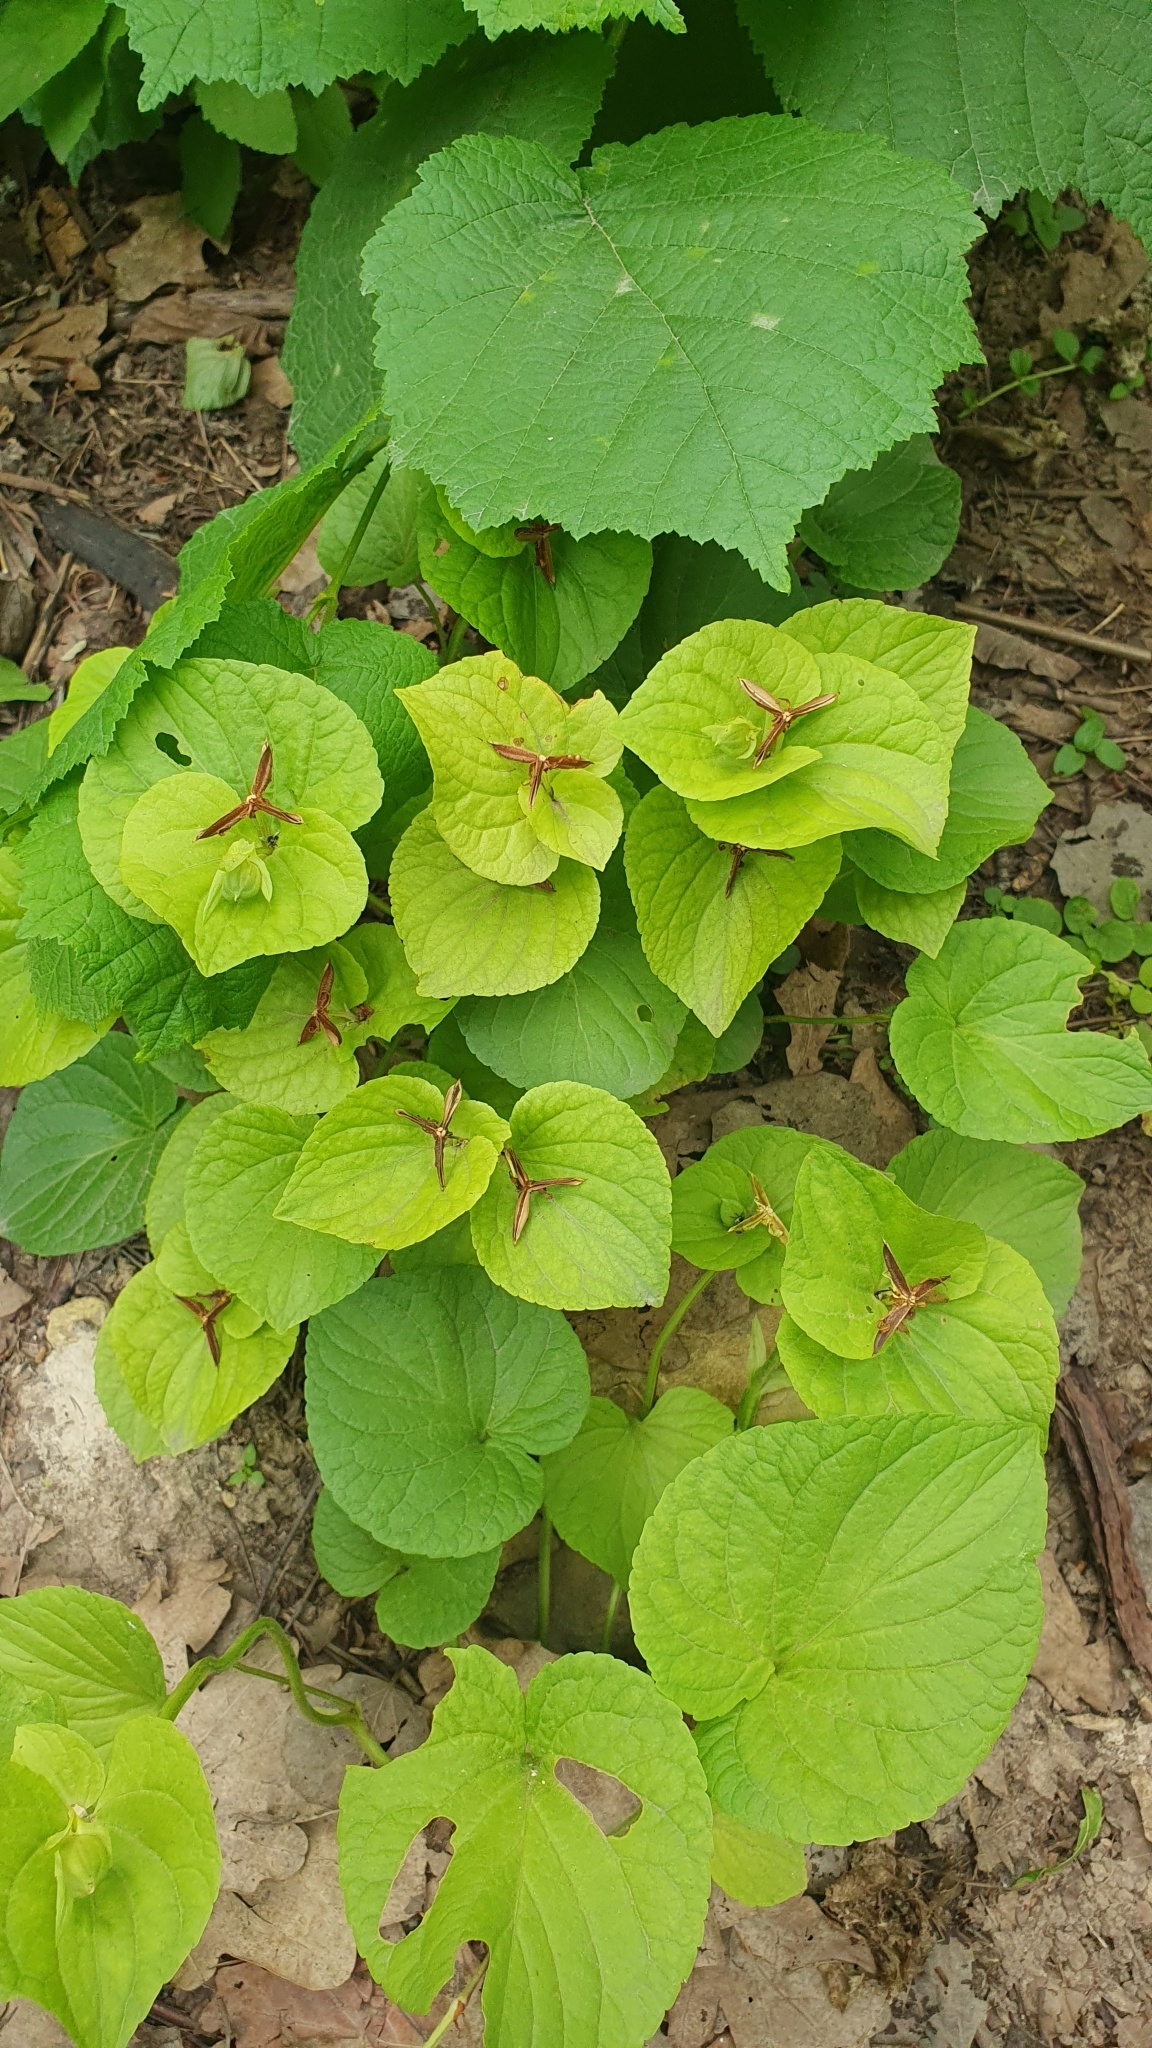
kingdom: Plantae
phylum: Tracheophyta
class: Magnoliopsida
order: Malpighiales
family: Violaceae
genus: Viola
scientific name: Viola mirabilis
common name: Wonder violet
